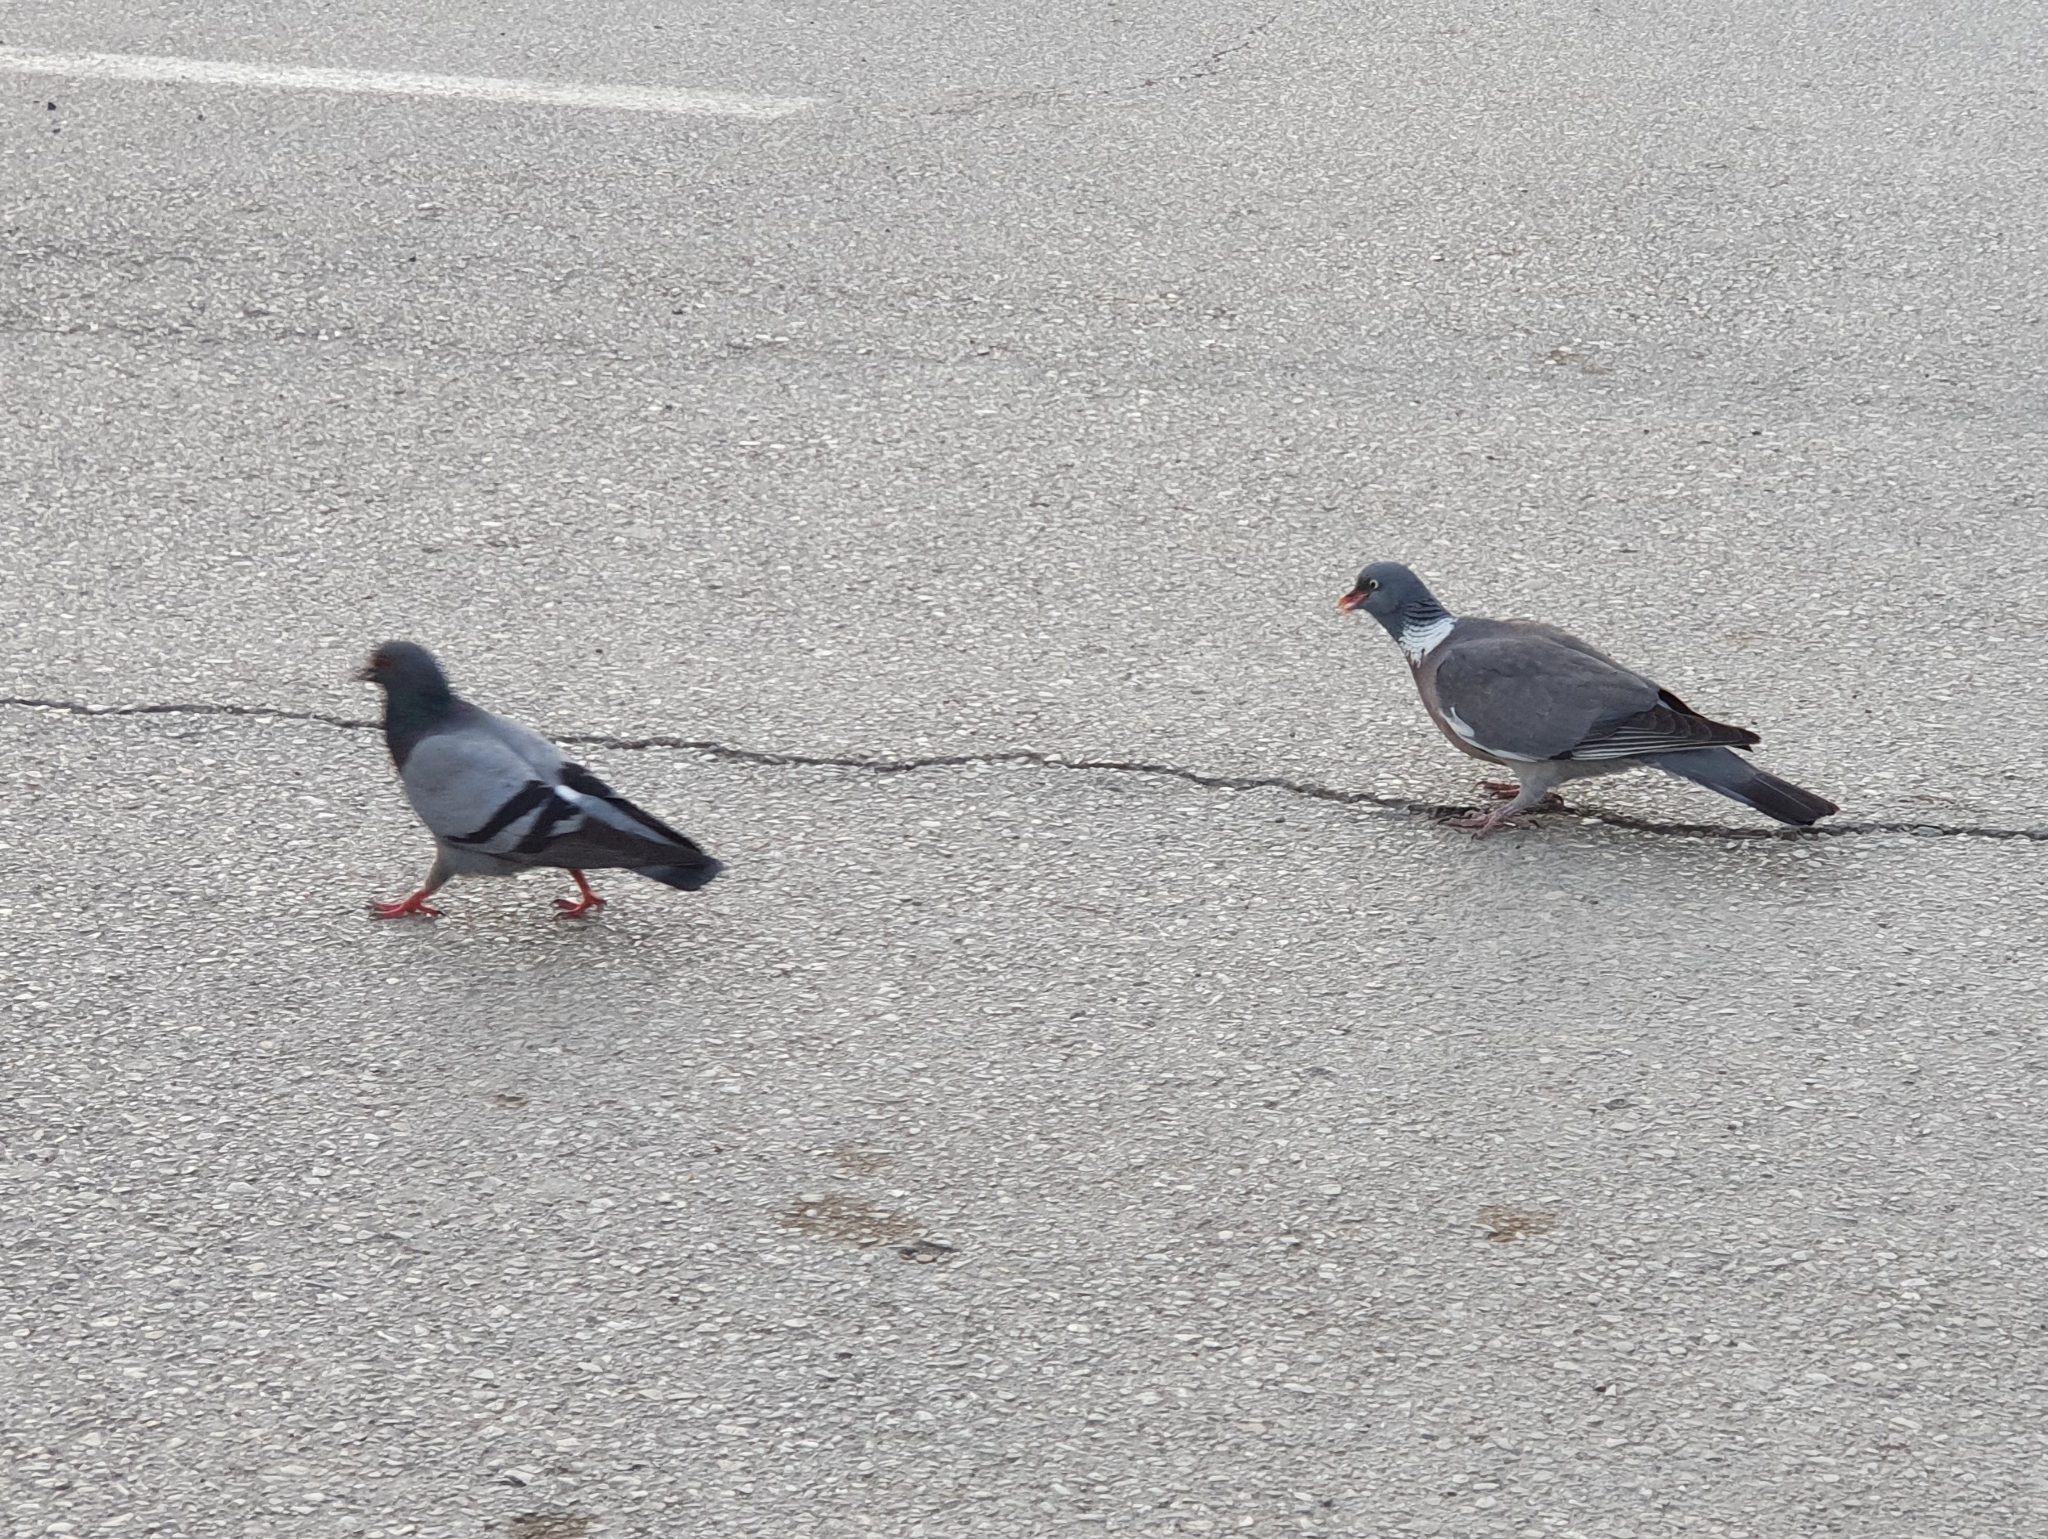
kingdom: Animalia
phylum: Chordata
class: Aves
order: Columbiformes
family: Columbidae
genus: Columba
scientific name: Columba livia
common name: Rock pigeon
